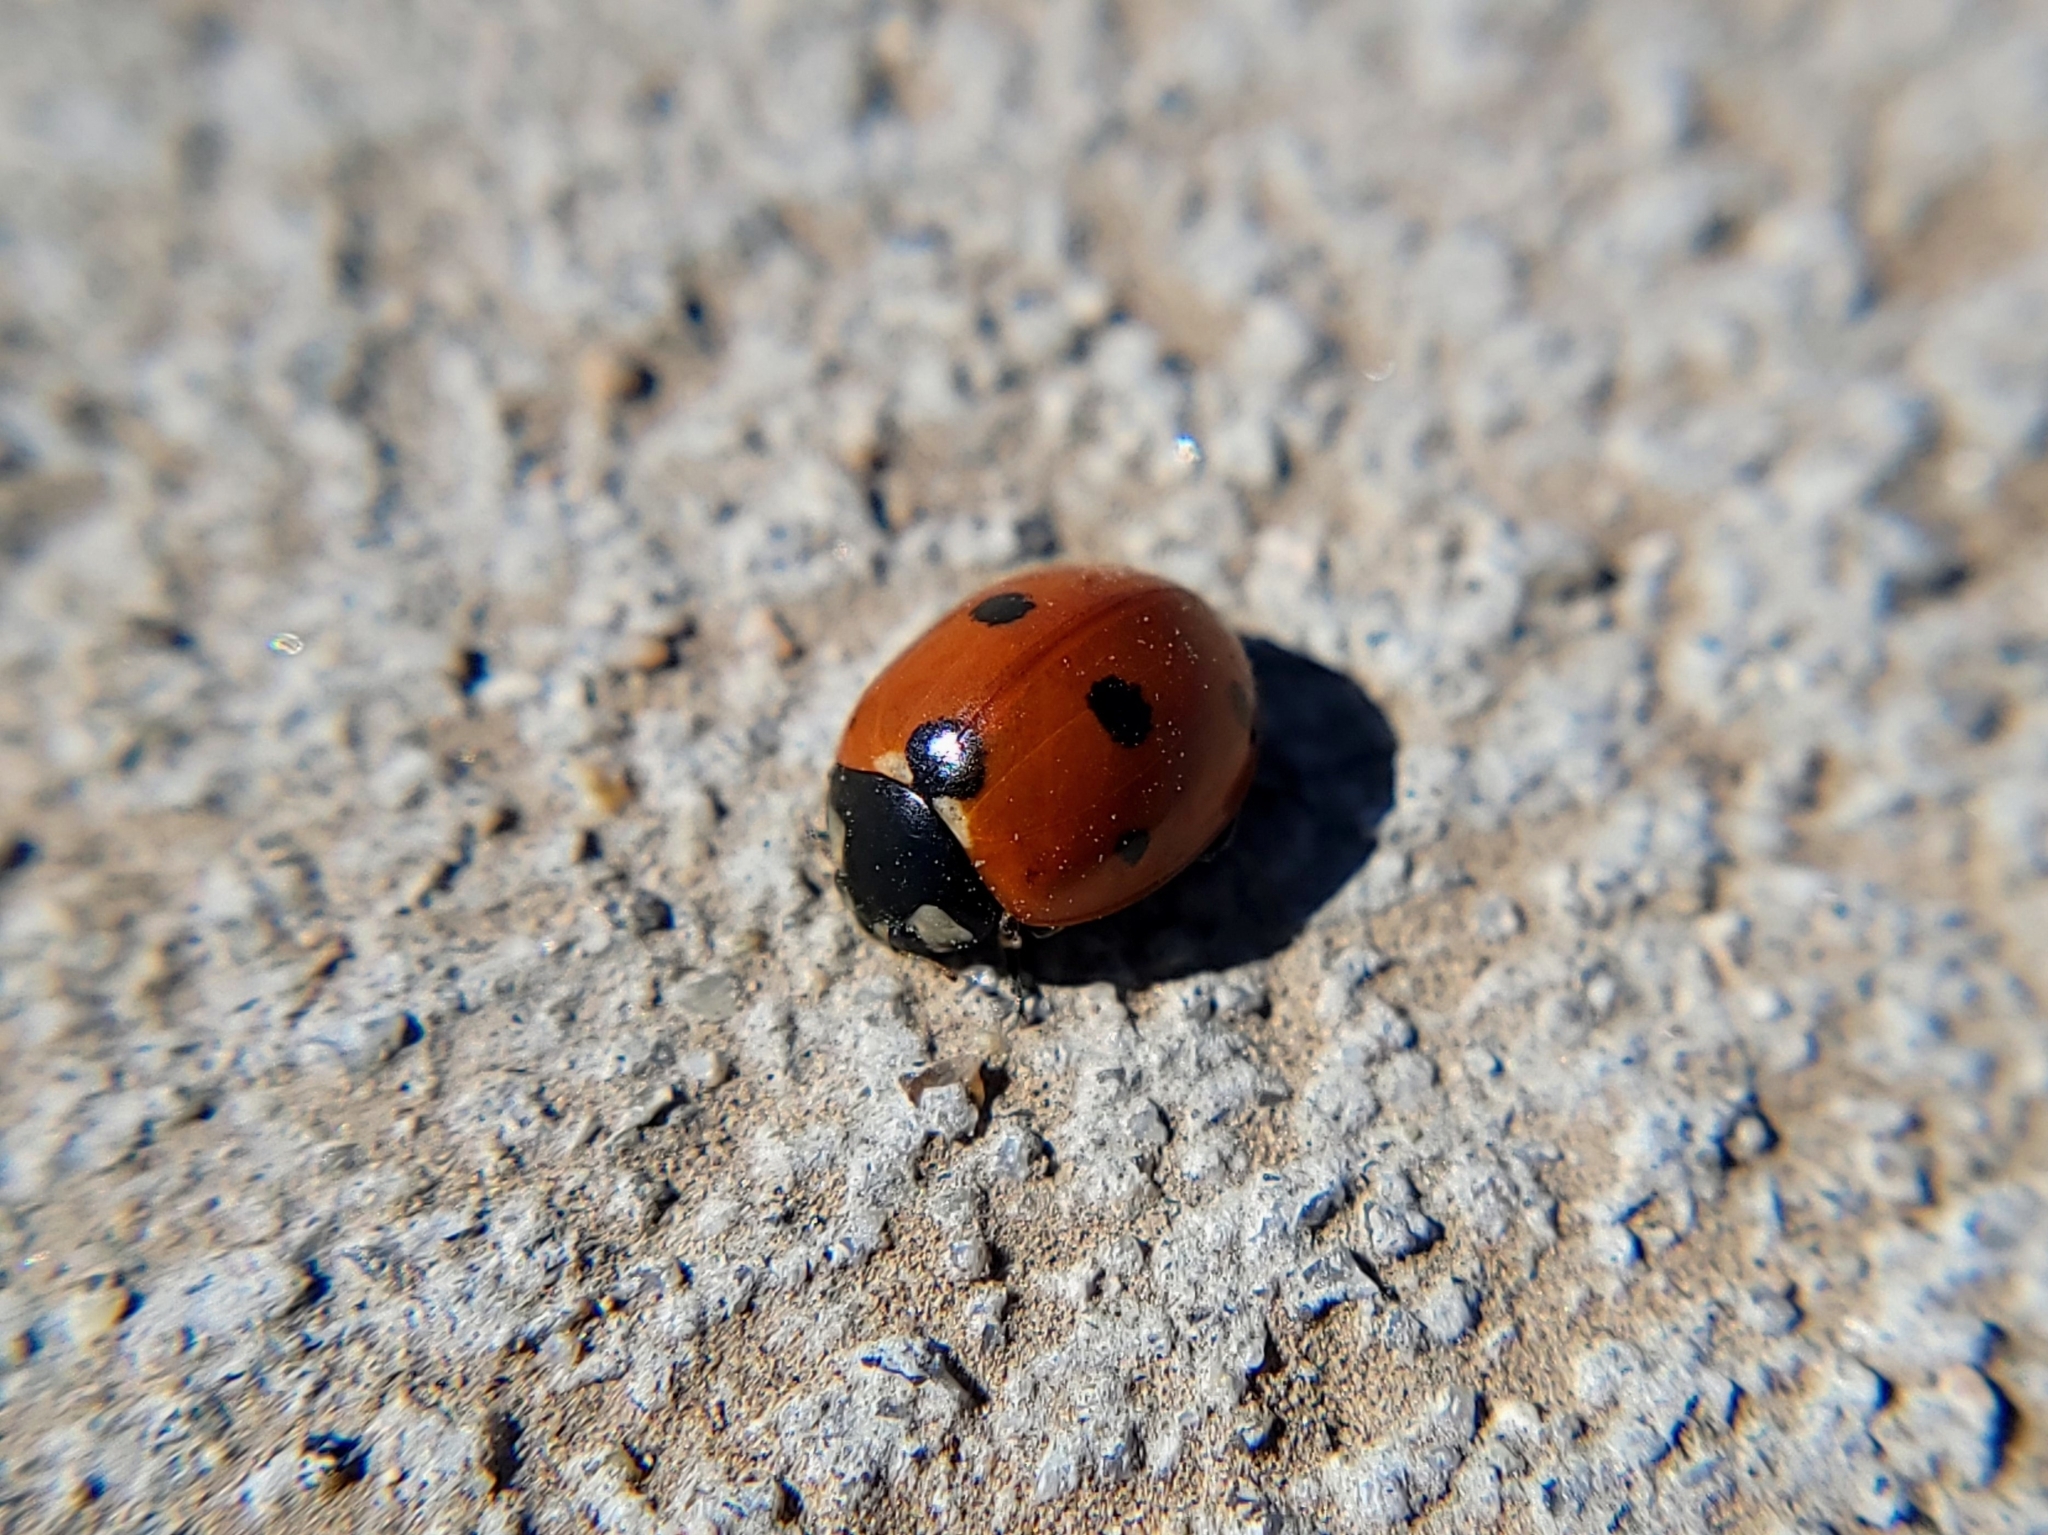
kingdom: Animalia
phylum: Arthropoda
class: Insecta
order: Coleoptera
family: Coccinellidae
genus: Coccinella
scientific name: Coccinella septempunctata
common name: Sevenspotted lady beetle
